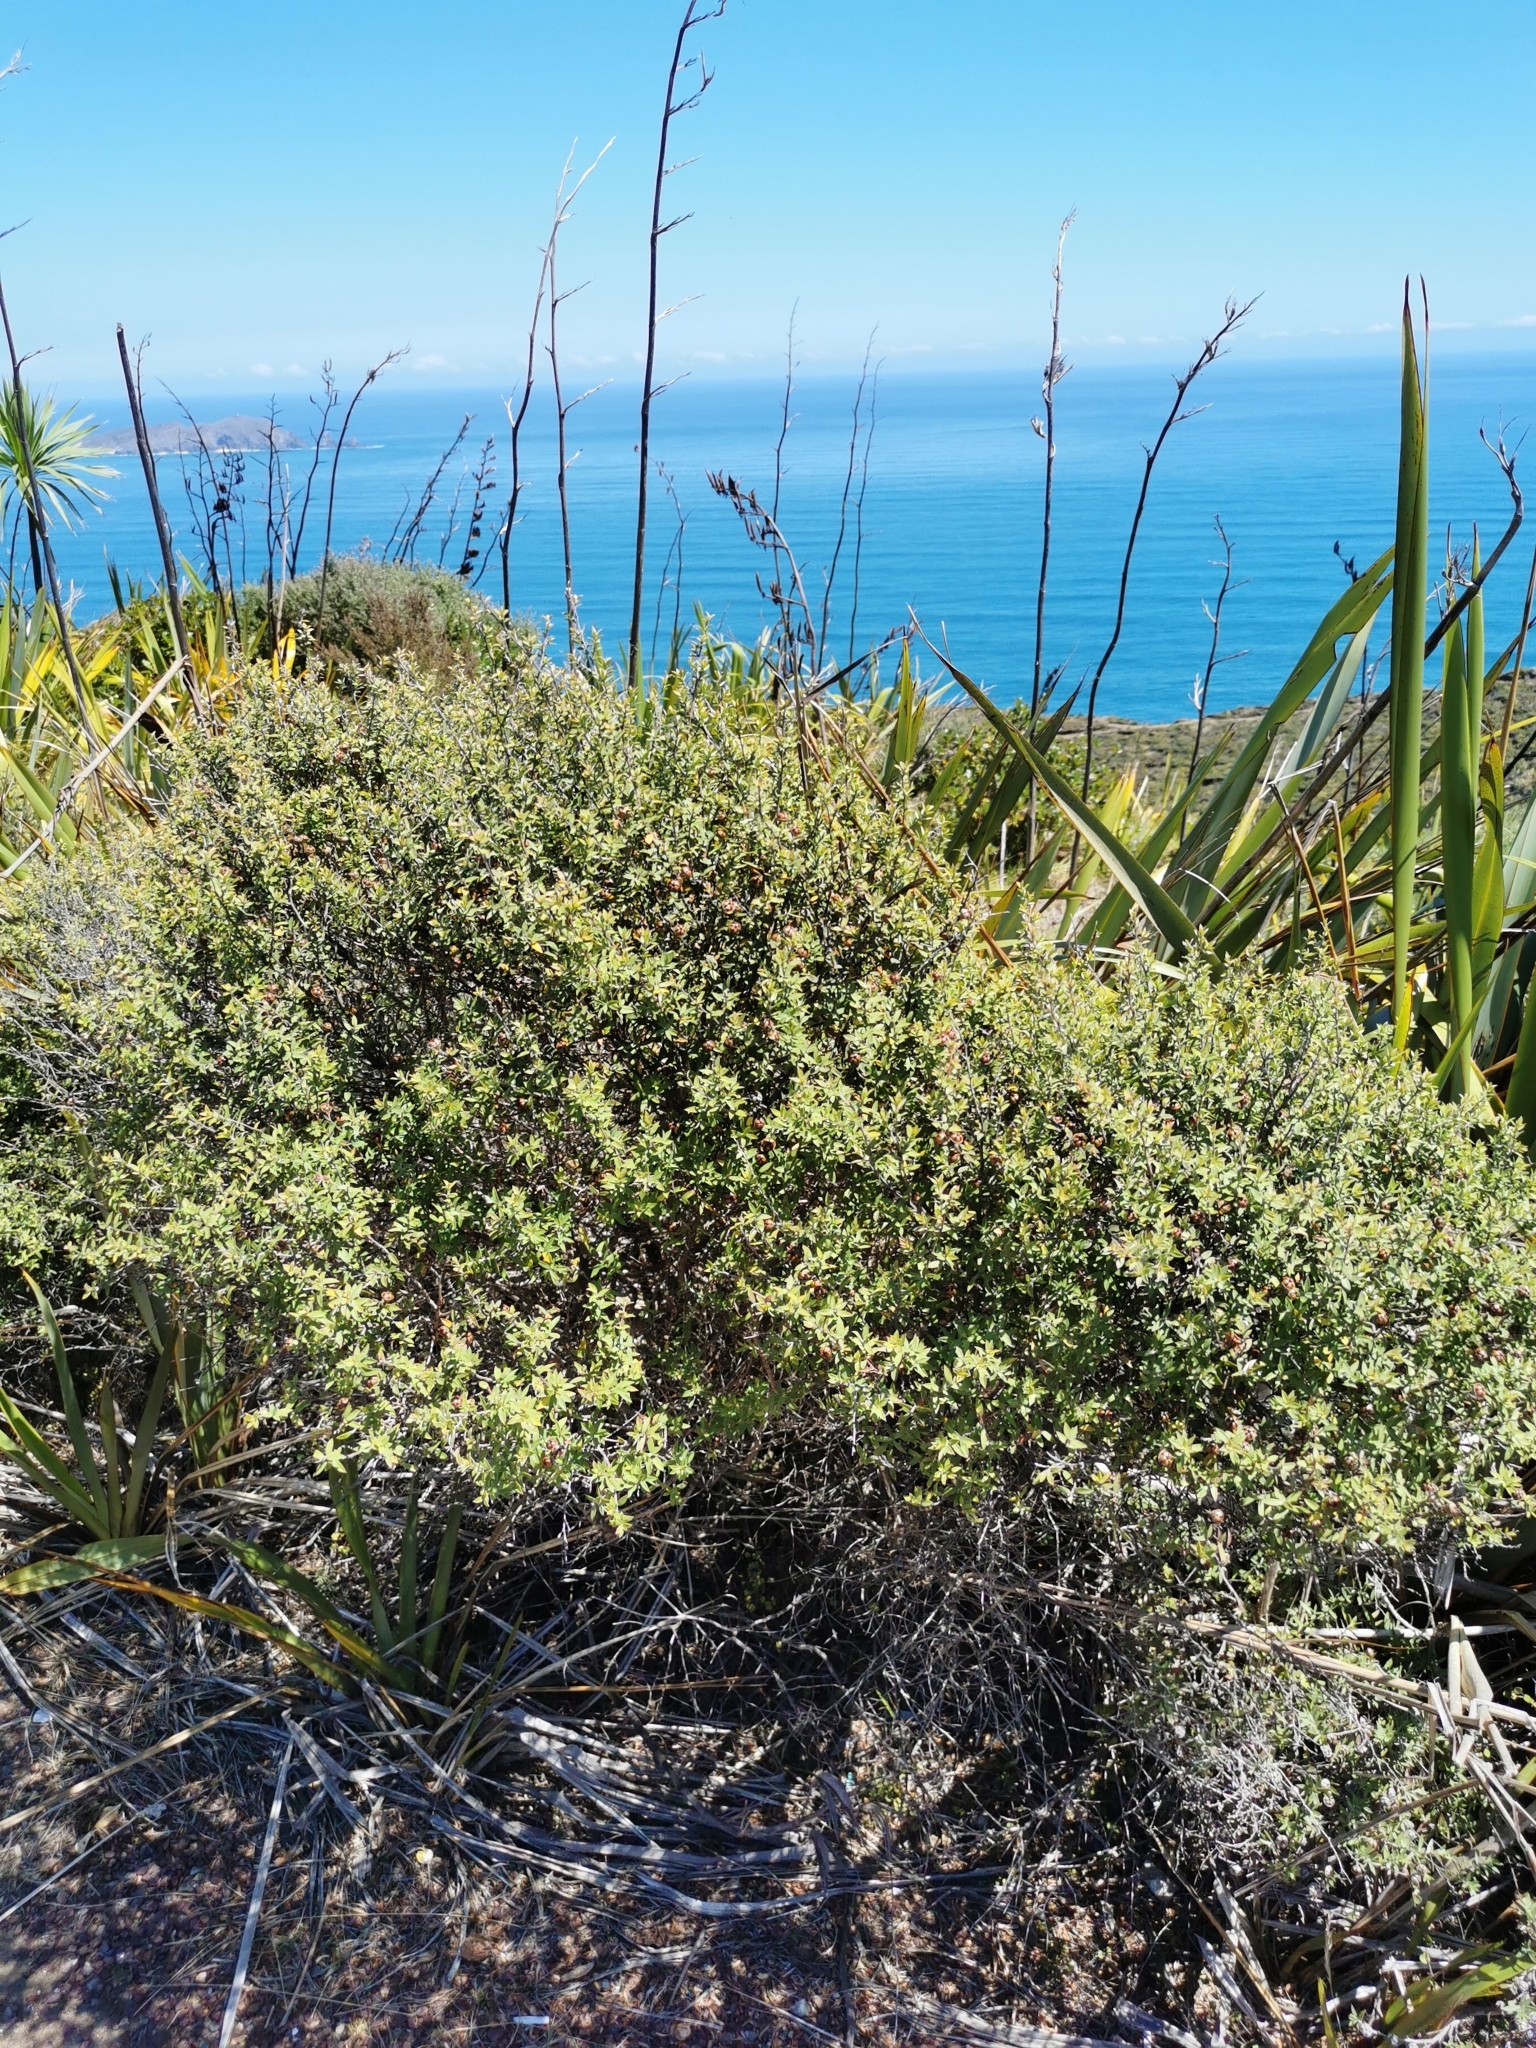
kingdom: Plantae
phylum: Tracheophyta
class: Magnoliopsida
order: Myrtales
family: Myrtaceae
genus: Leptospermum
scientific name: Leptospermum scoparium
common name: Broom tea-tree
